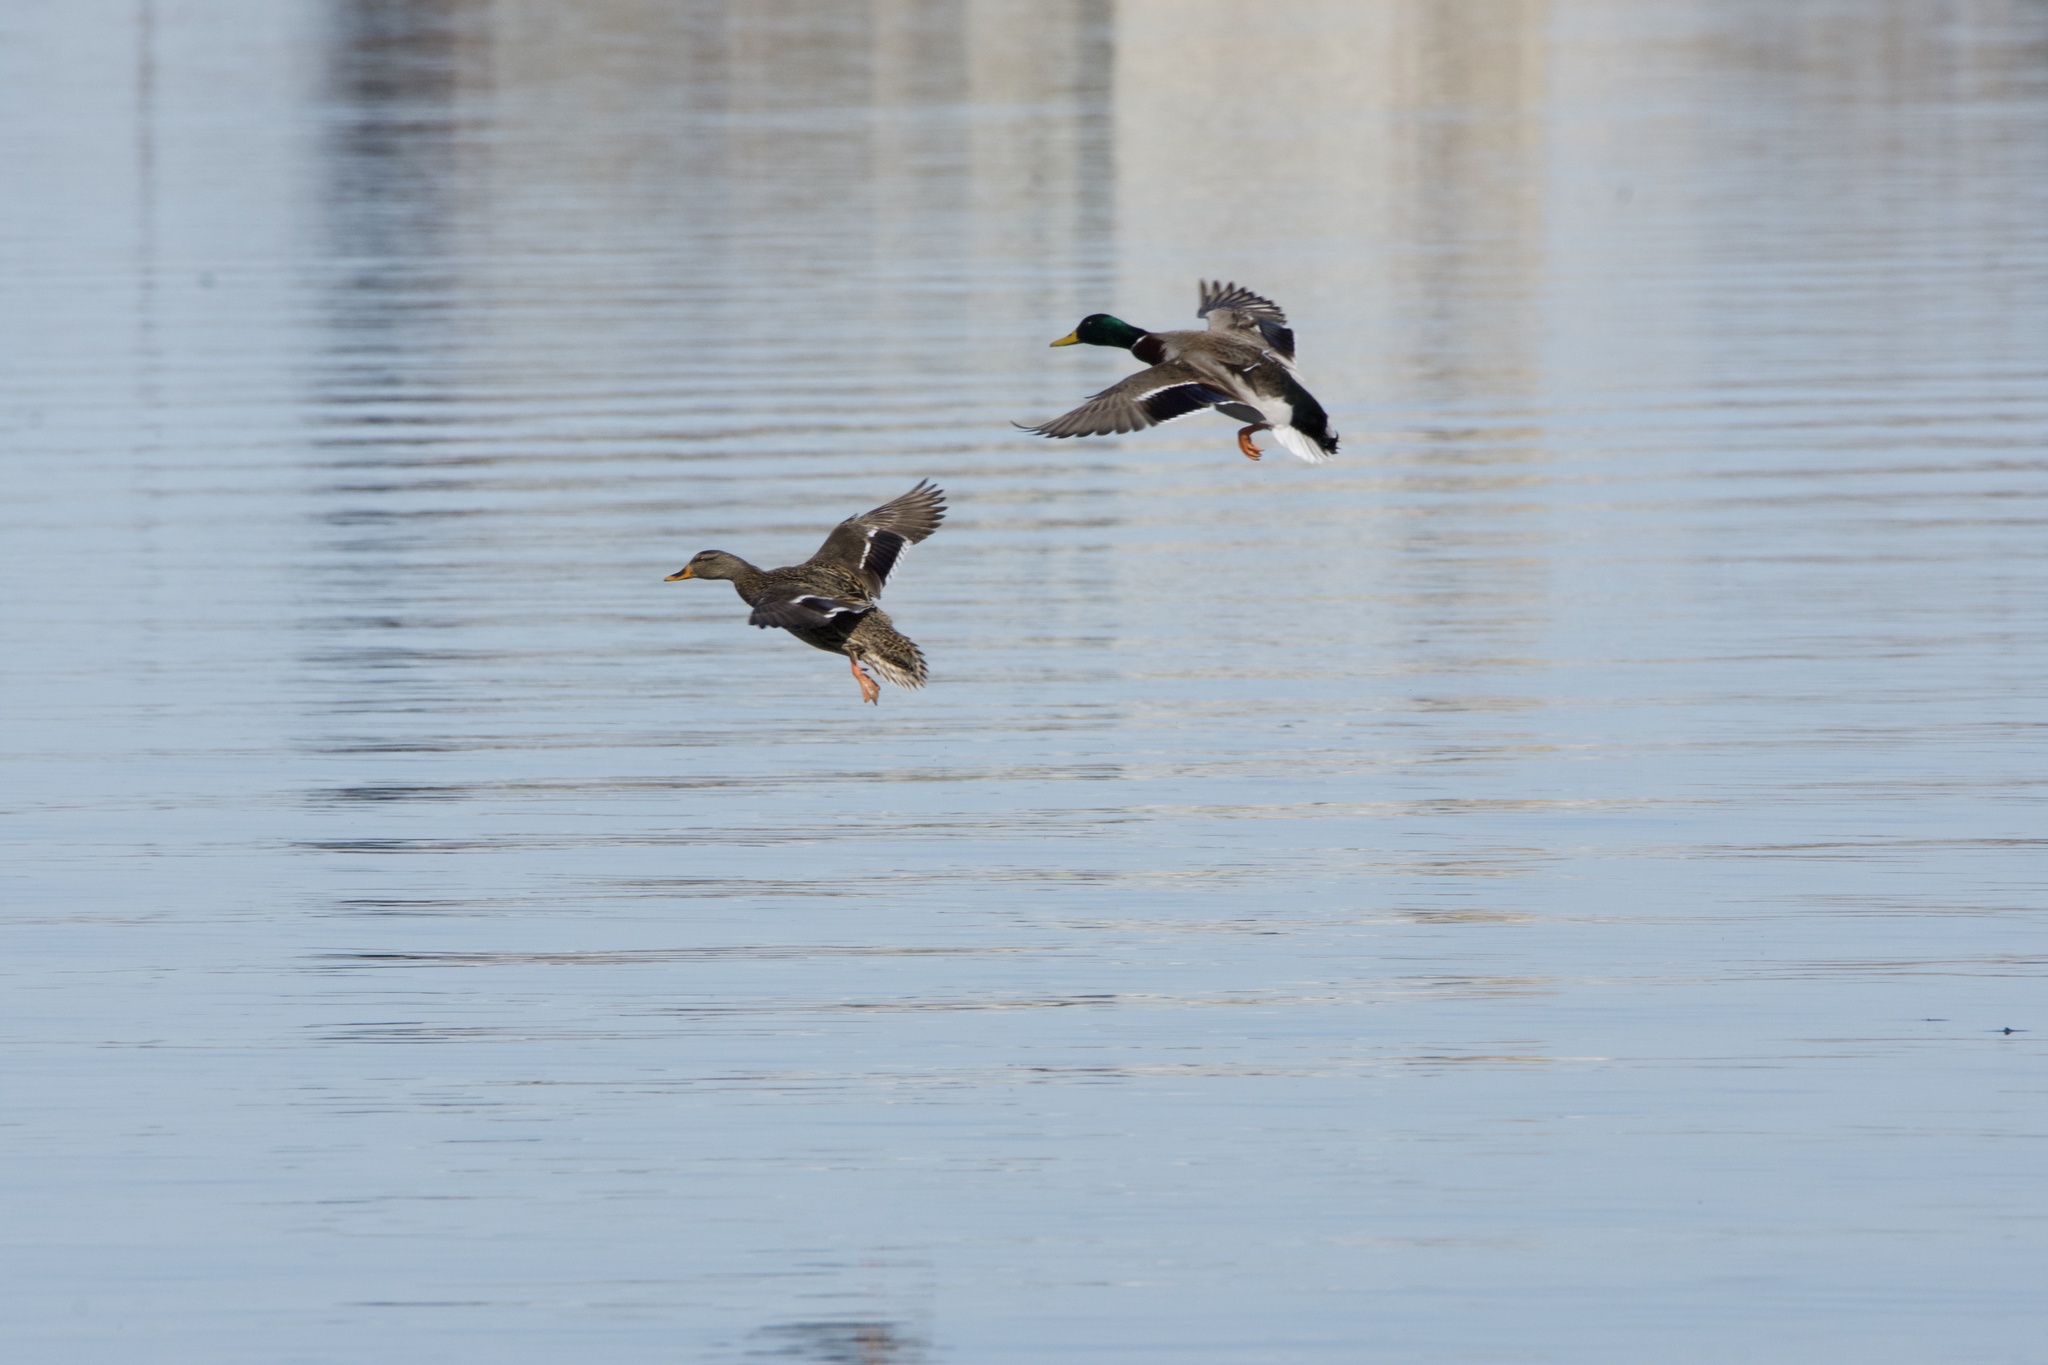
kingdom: Animalia
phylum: Chordata
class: Aves
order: Anseriformes
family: Anatidae
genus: Anas
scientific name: Anas platyrhynchos
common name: Mallard
